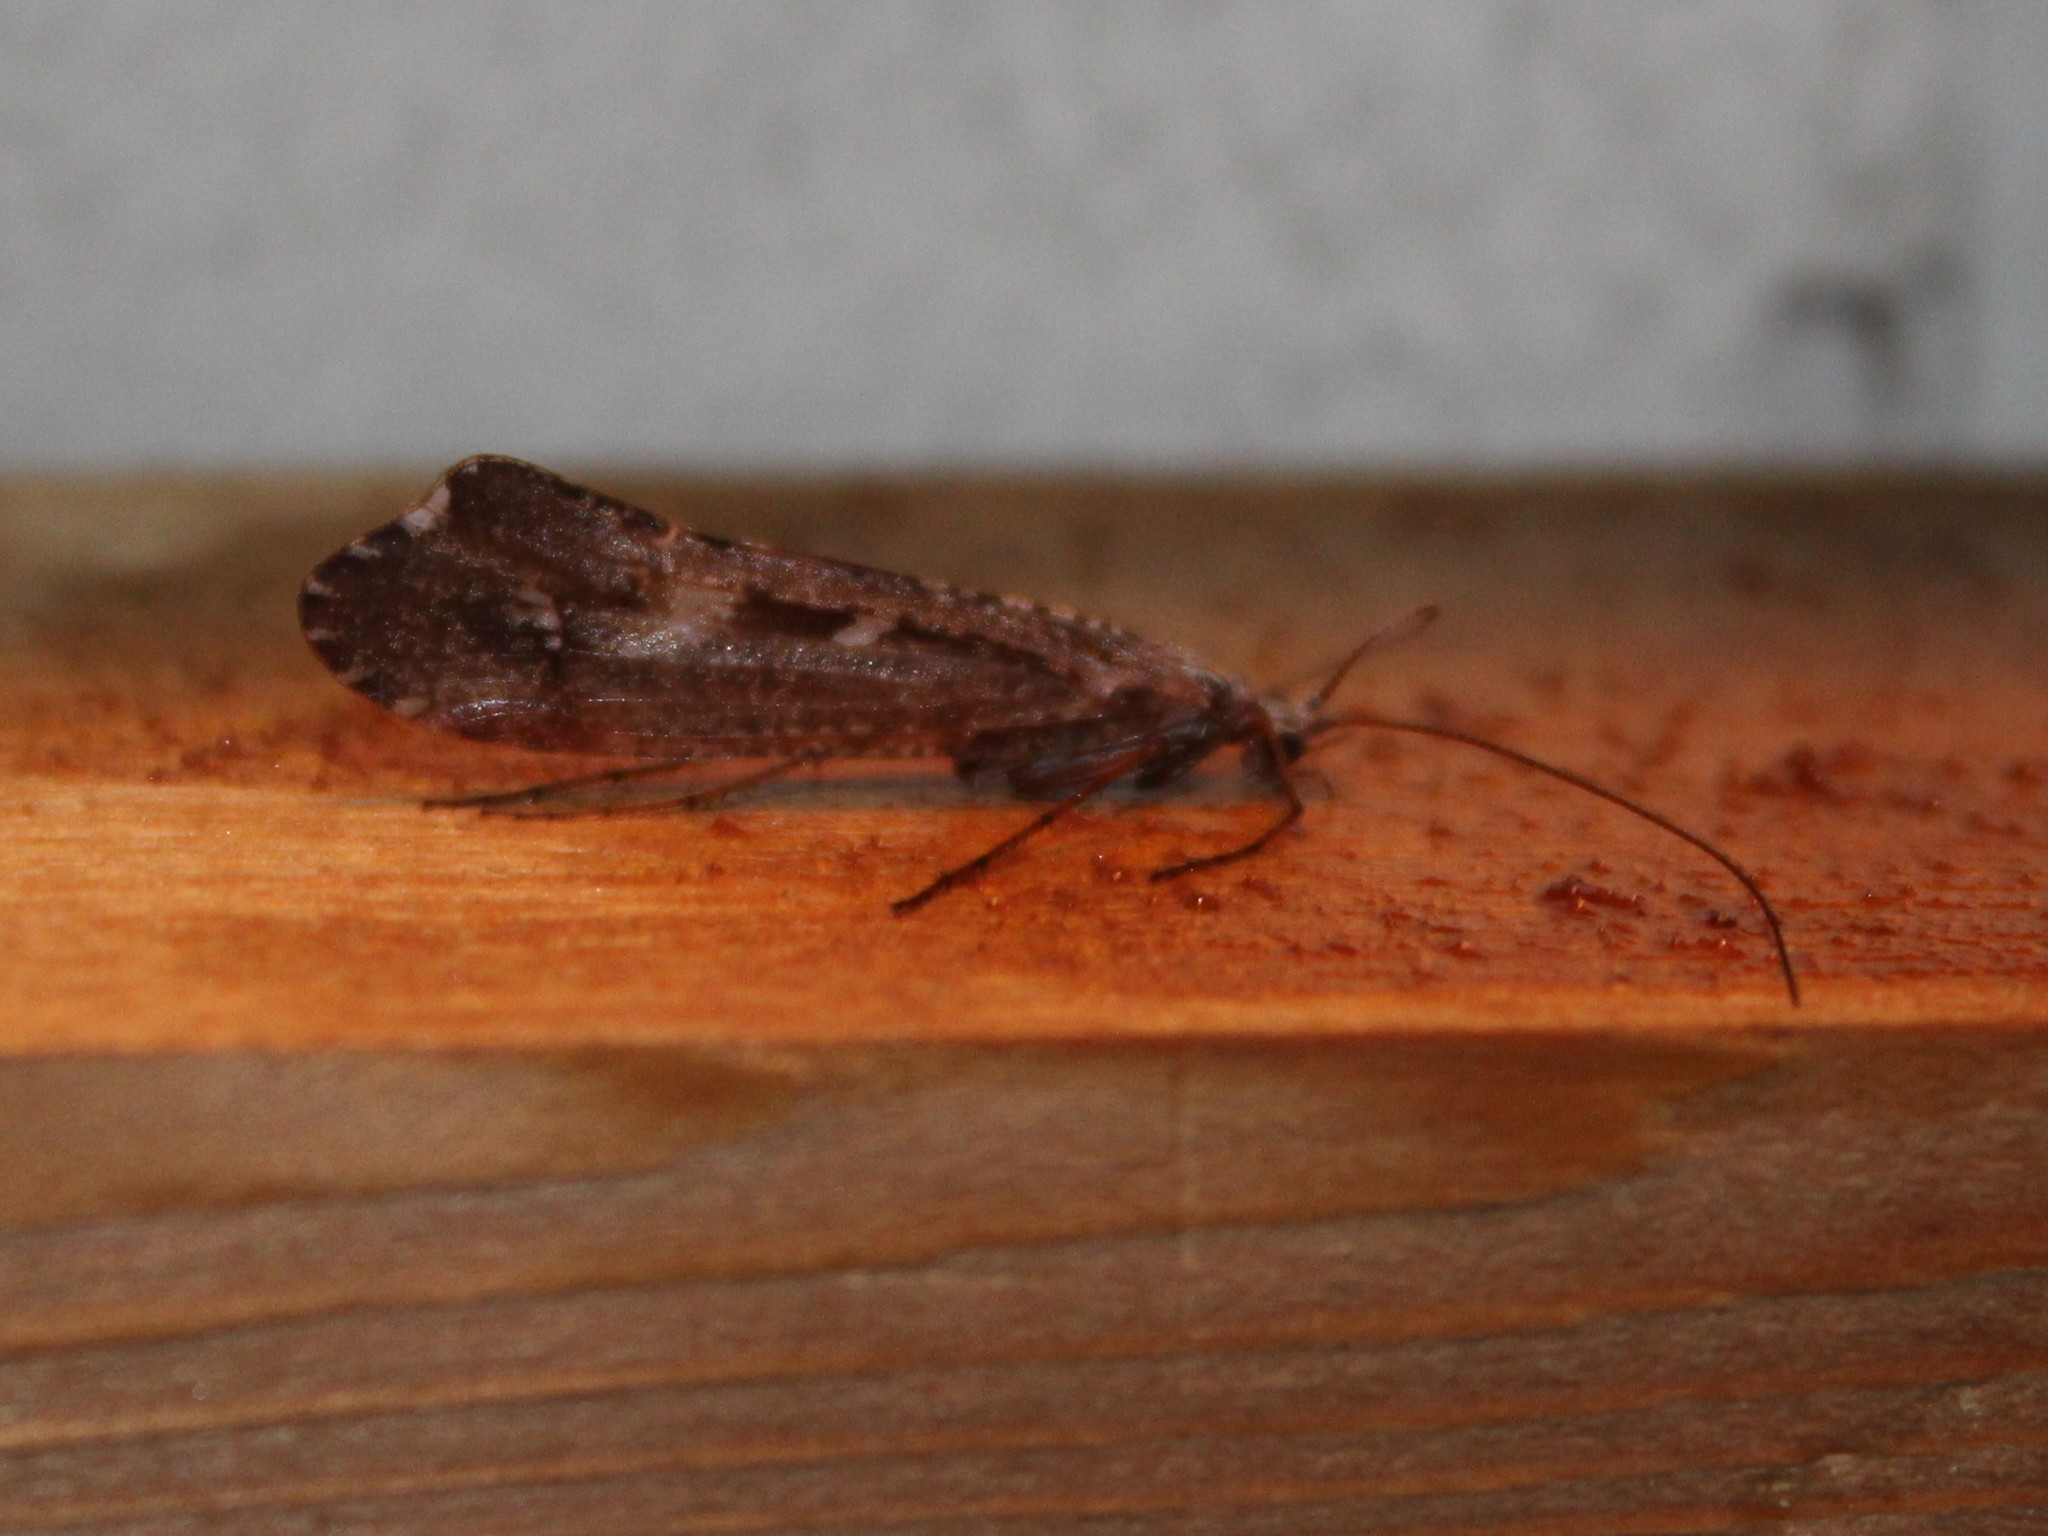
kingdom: Animalia
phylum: Arthropoda
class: Insecta
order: Trichoptera
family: Limnephilidae
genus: Glyphopsyche
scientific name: Glyphopsyche irrorata
